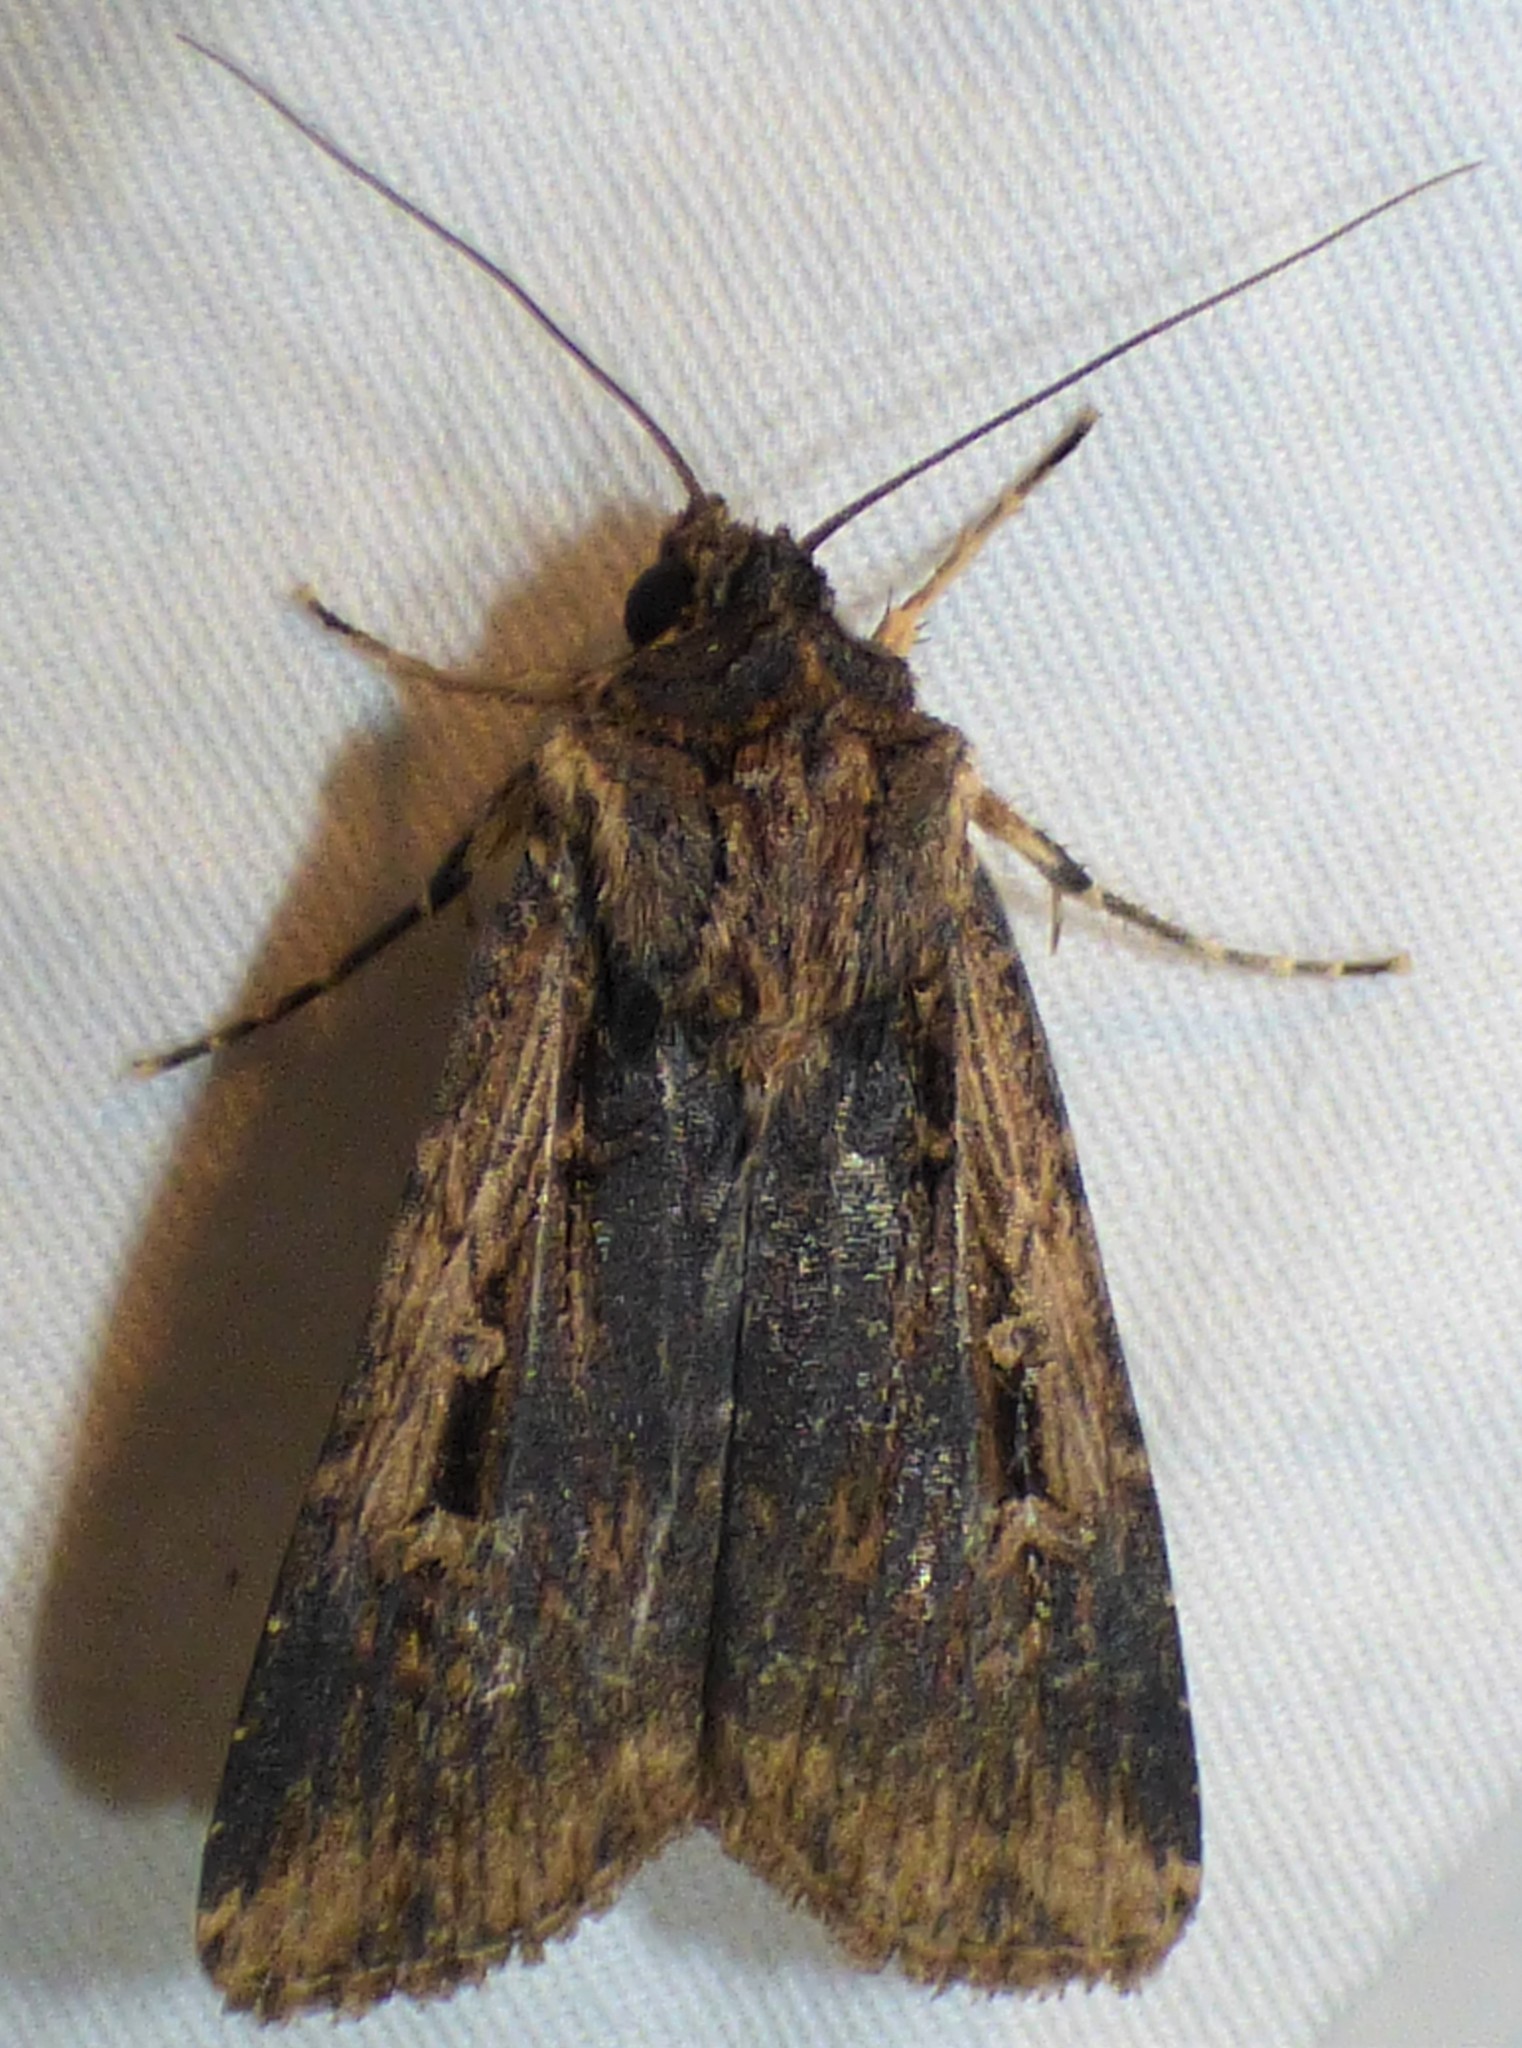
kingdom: Animalia
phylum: Arthropoda
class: Insecta
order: Lepidoptera
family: Noctuidae
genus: Feltia
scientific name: Feltia subterranea
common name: Granulate cutworm
